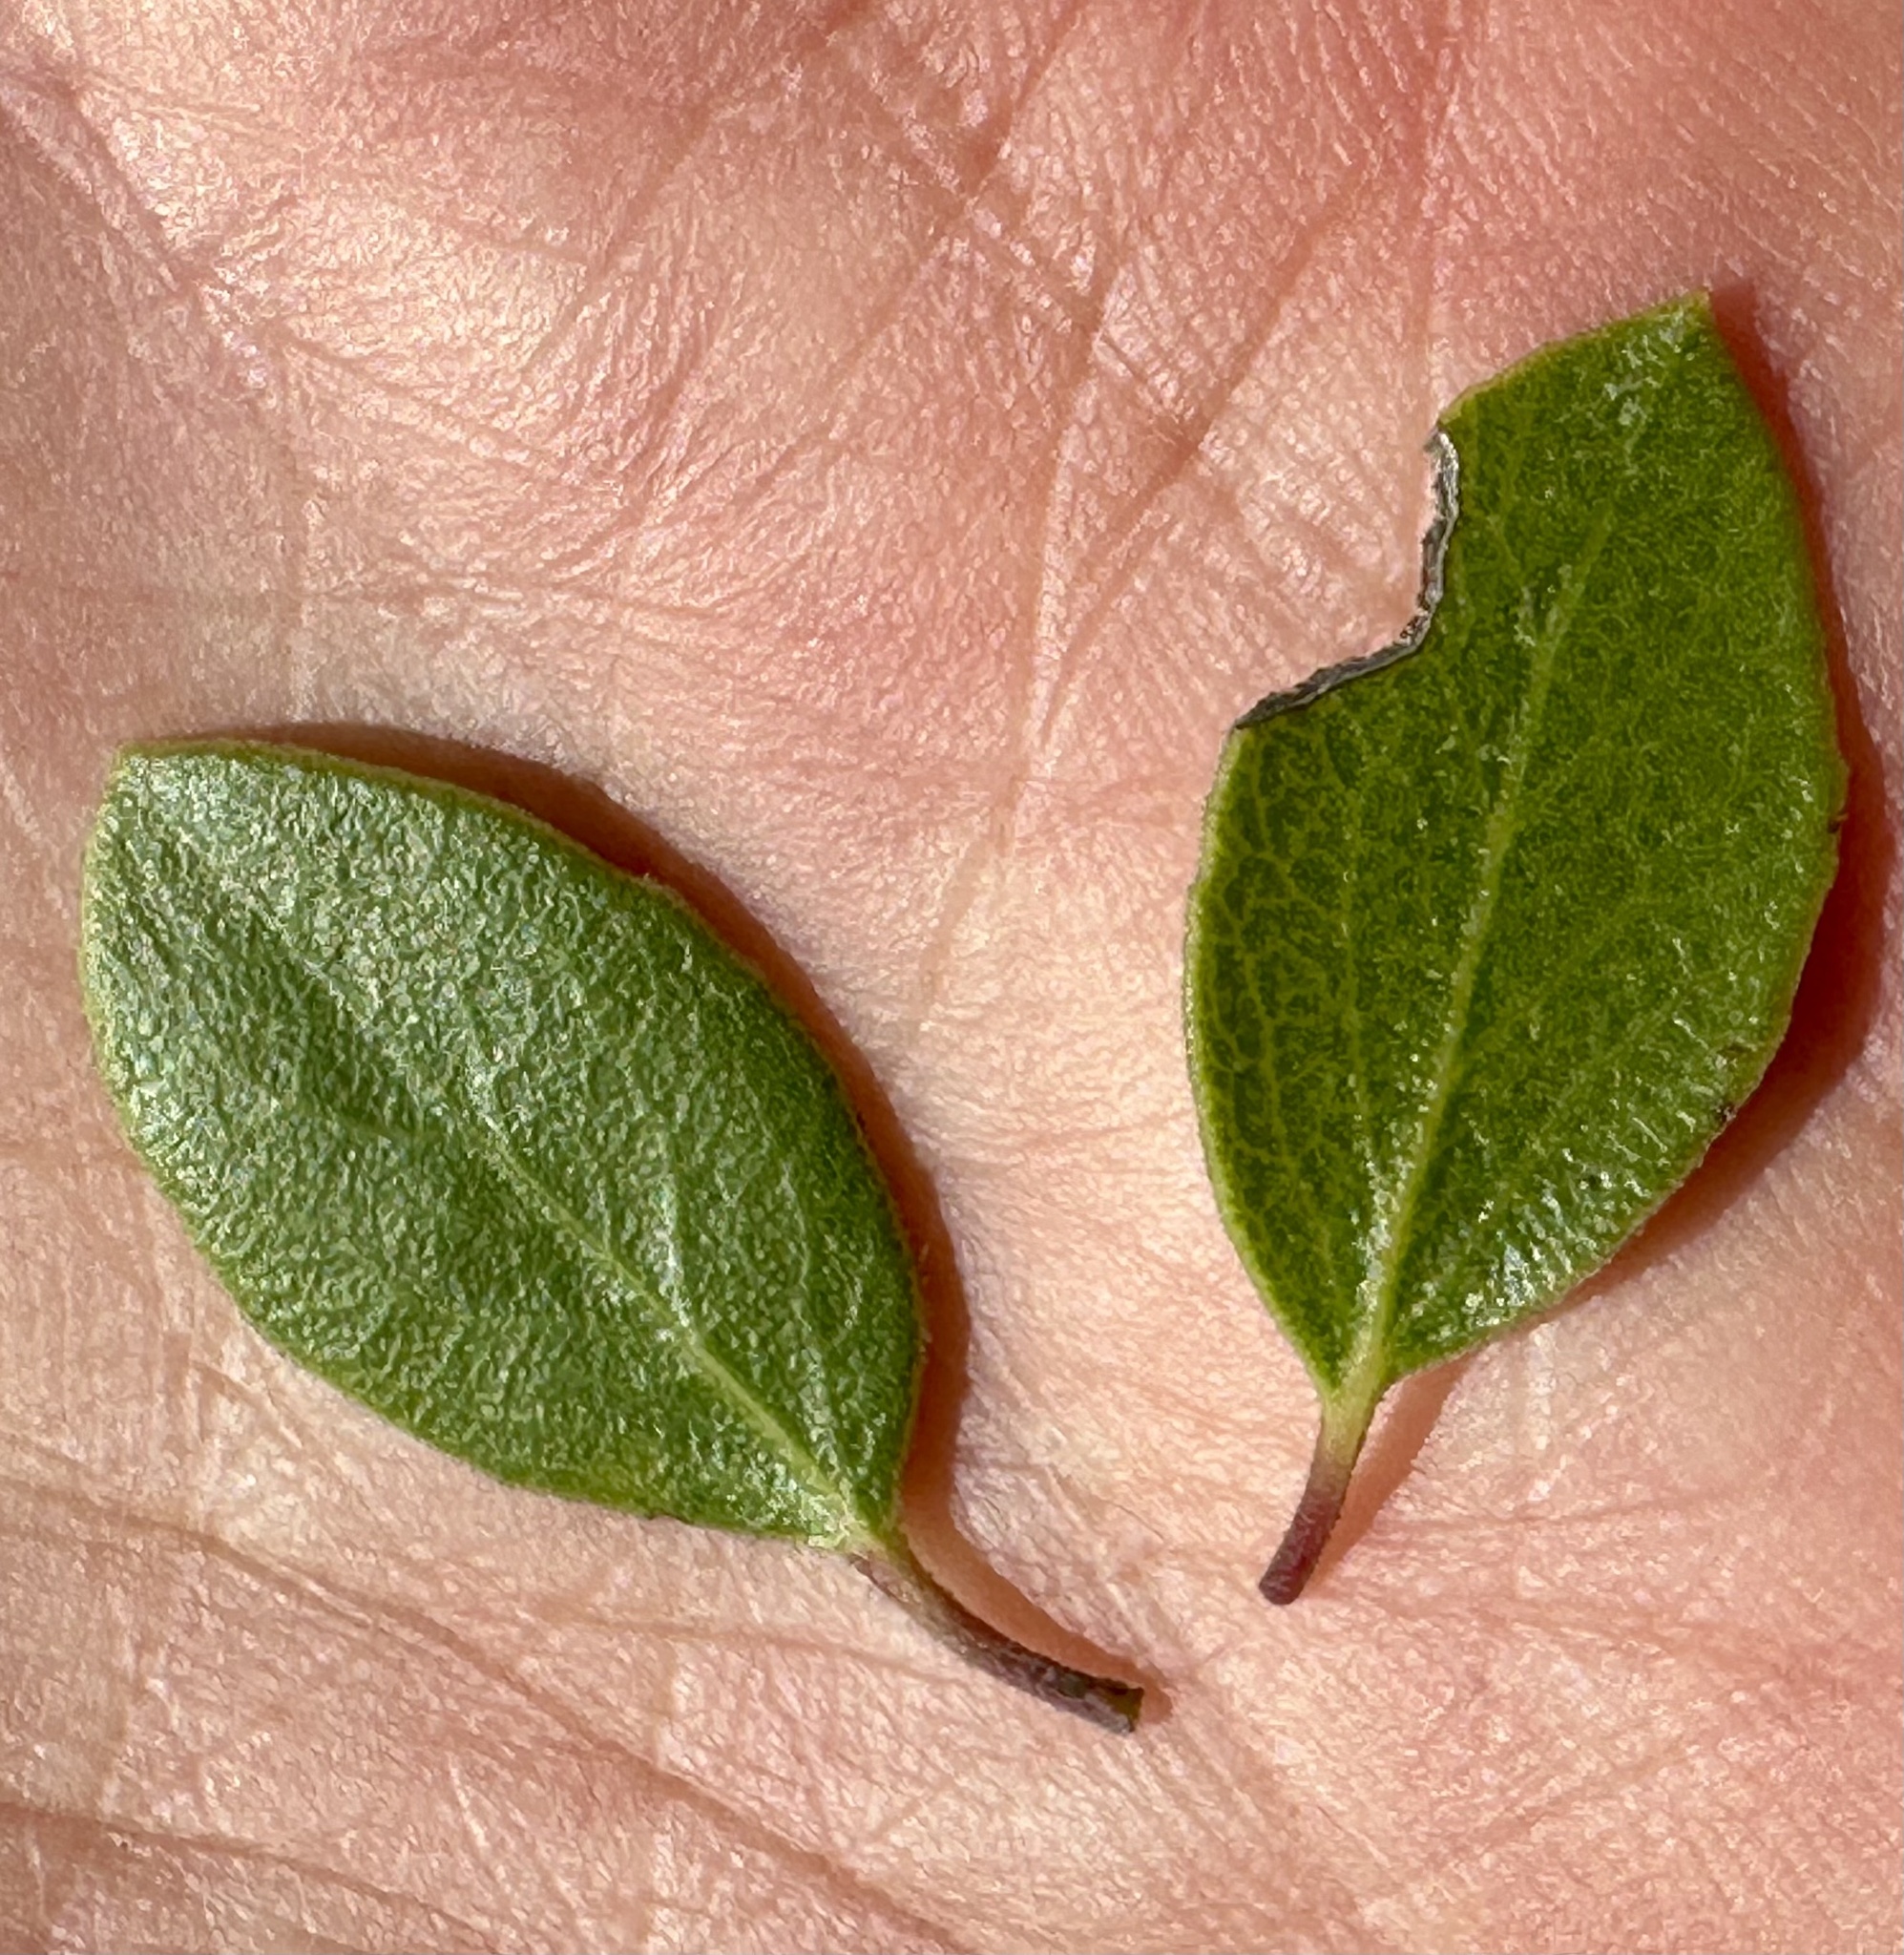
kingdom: Plantae
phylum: Tracheophyta
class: Magnoliopsida
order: Ericales
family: Ericaceae
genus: Arctostaphylos
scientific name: Arctostaphylos hookeri
